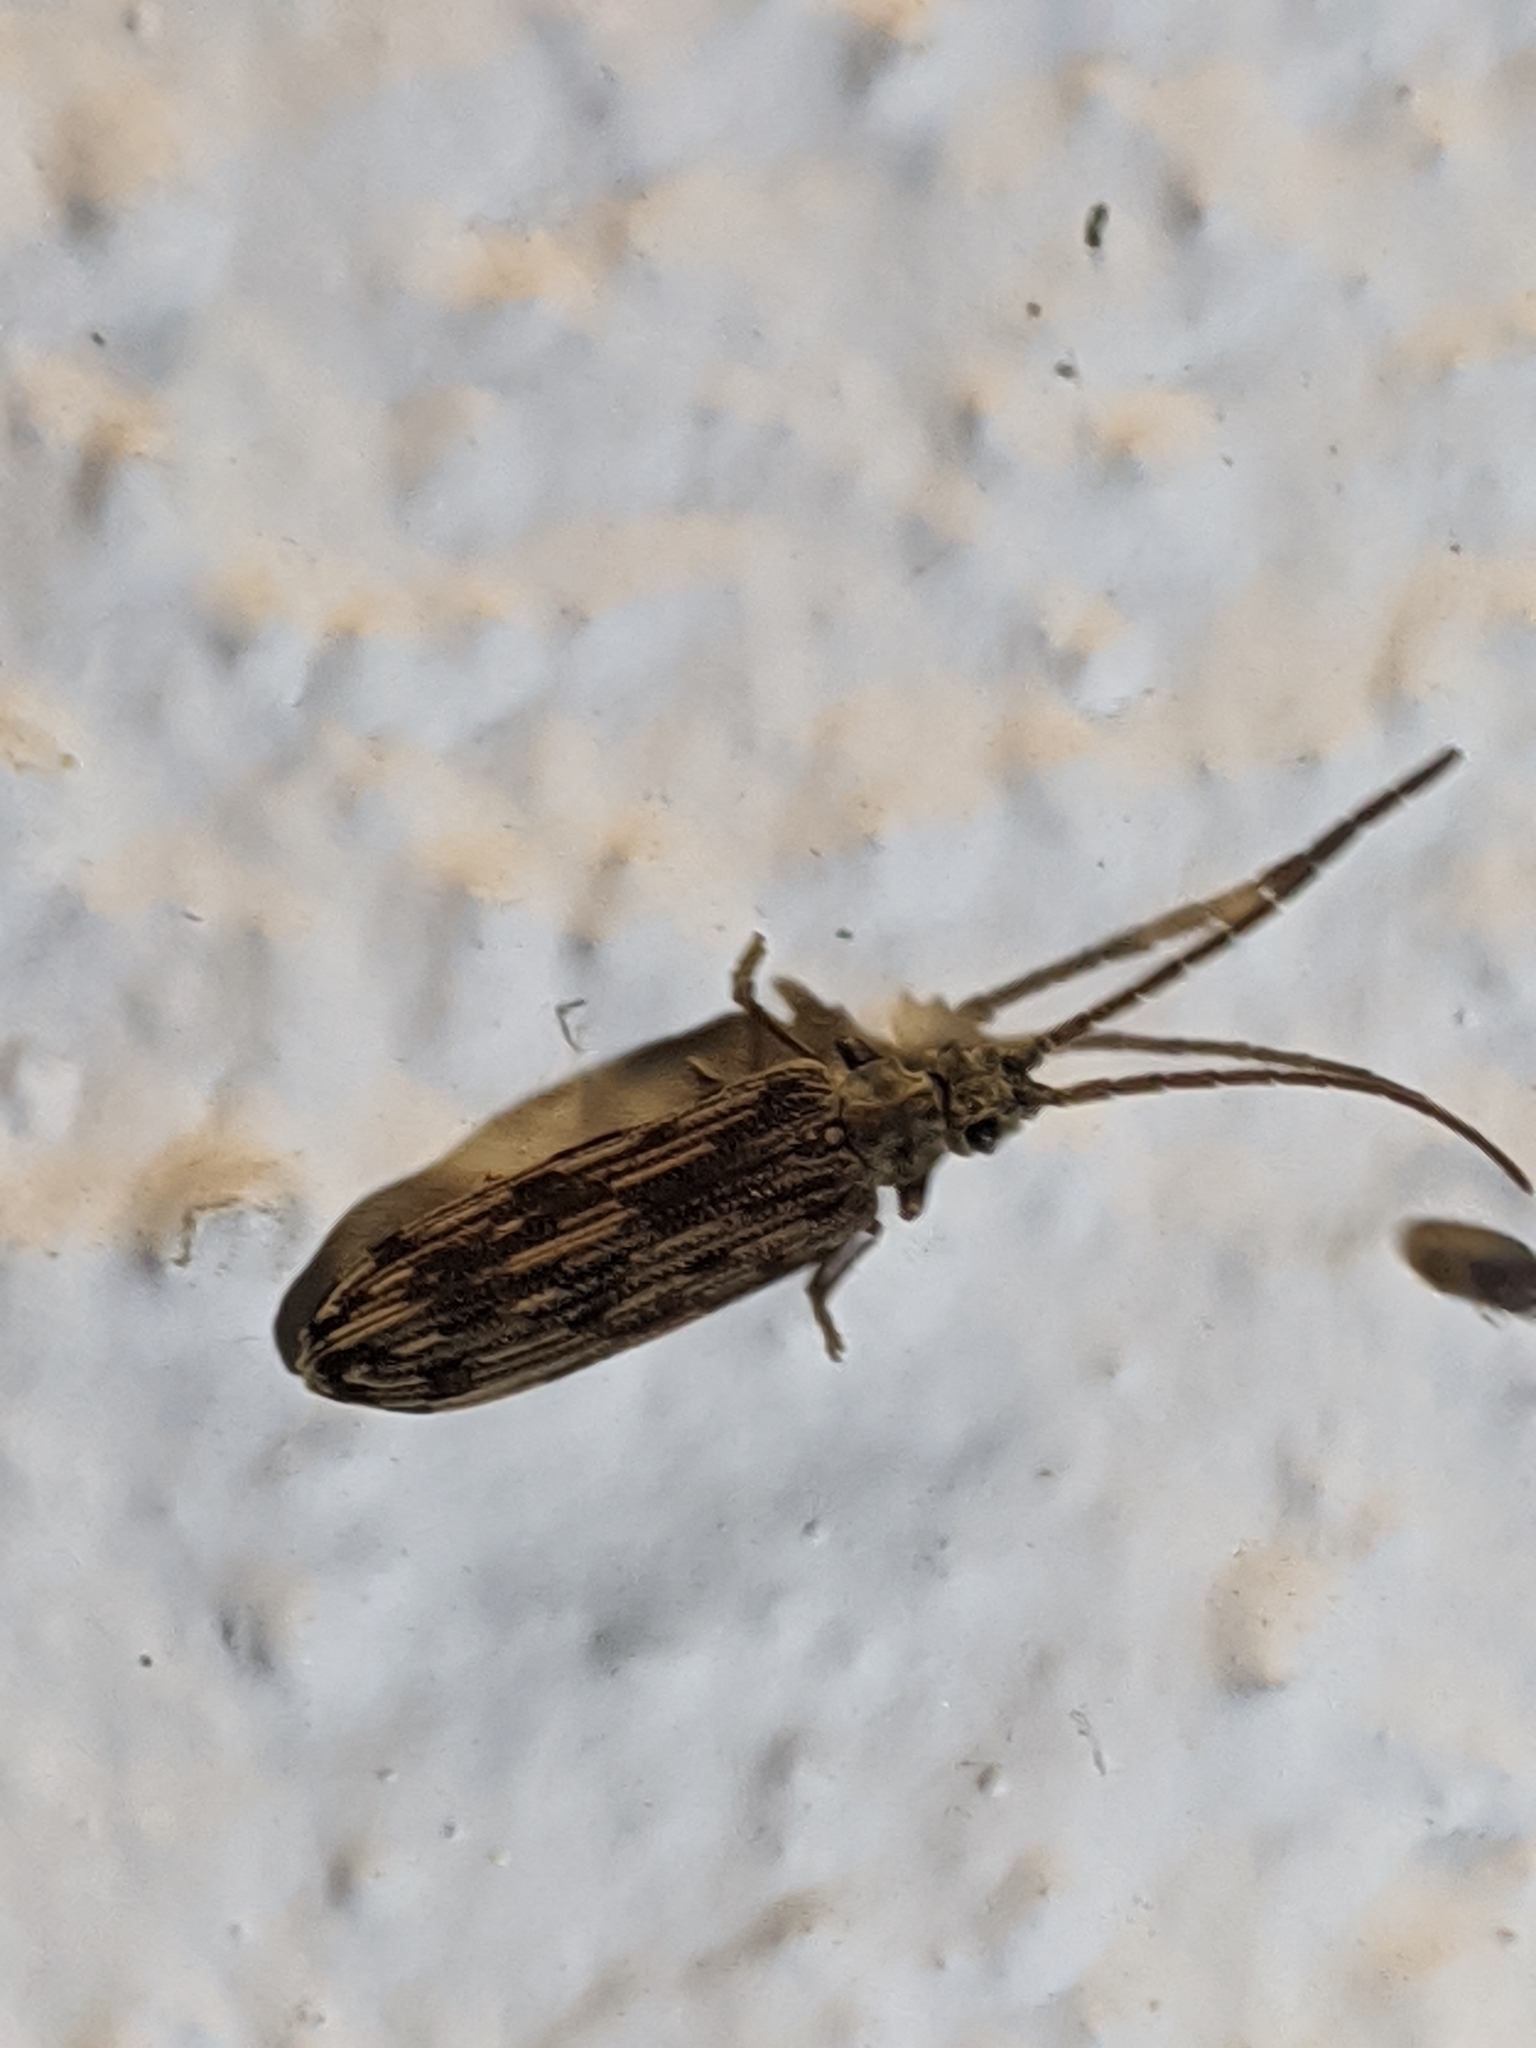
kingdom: Animalia
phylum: Arthropoda
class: Insecta
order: Coleoptera
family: Cupedidae
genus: Tenomerga
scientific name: Tenomerga cinerea
